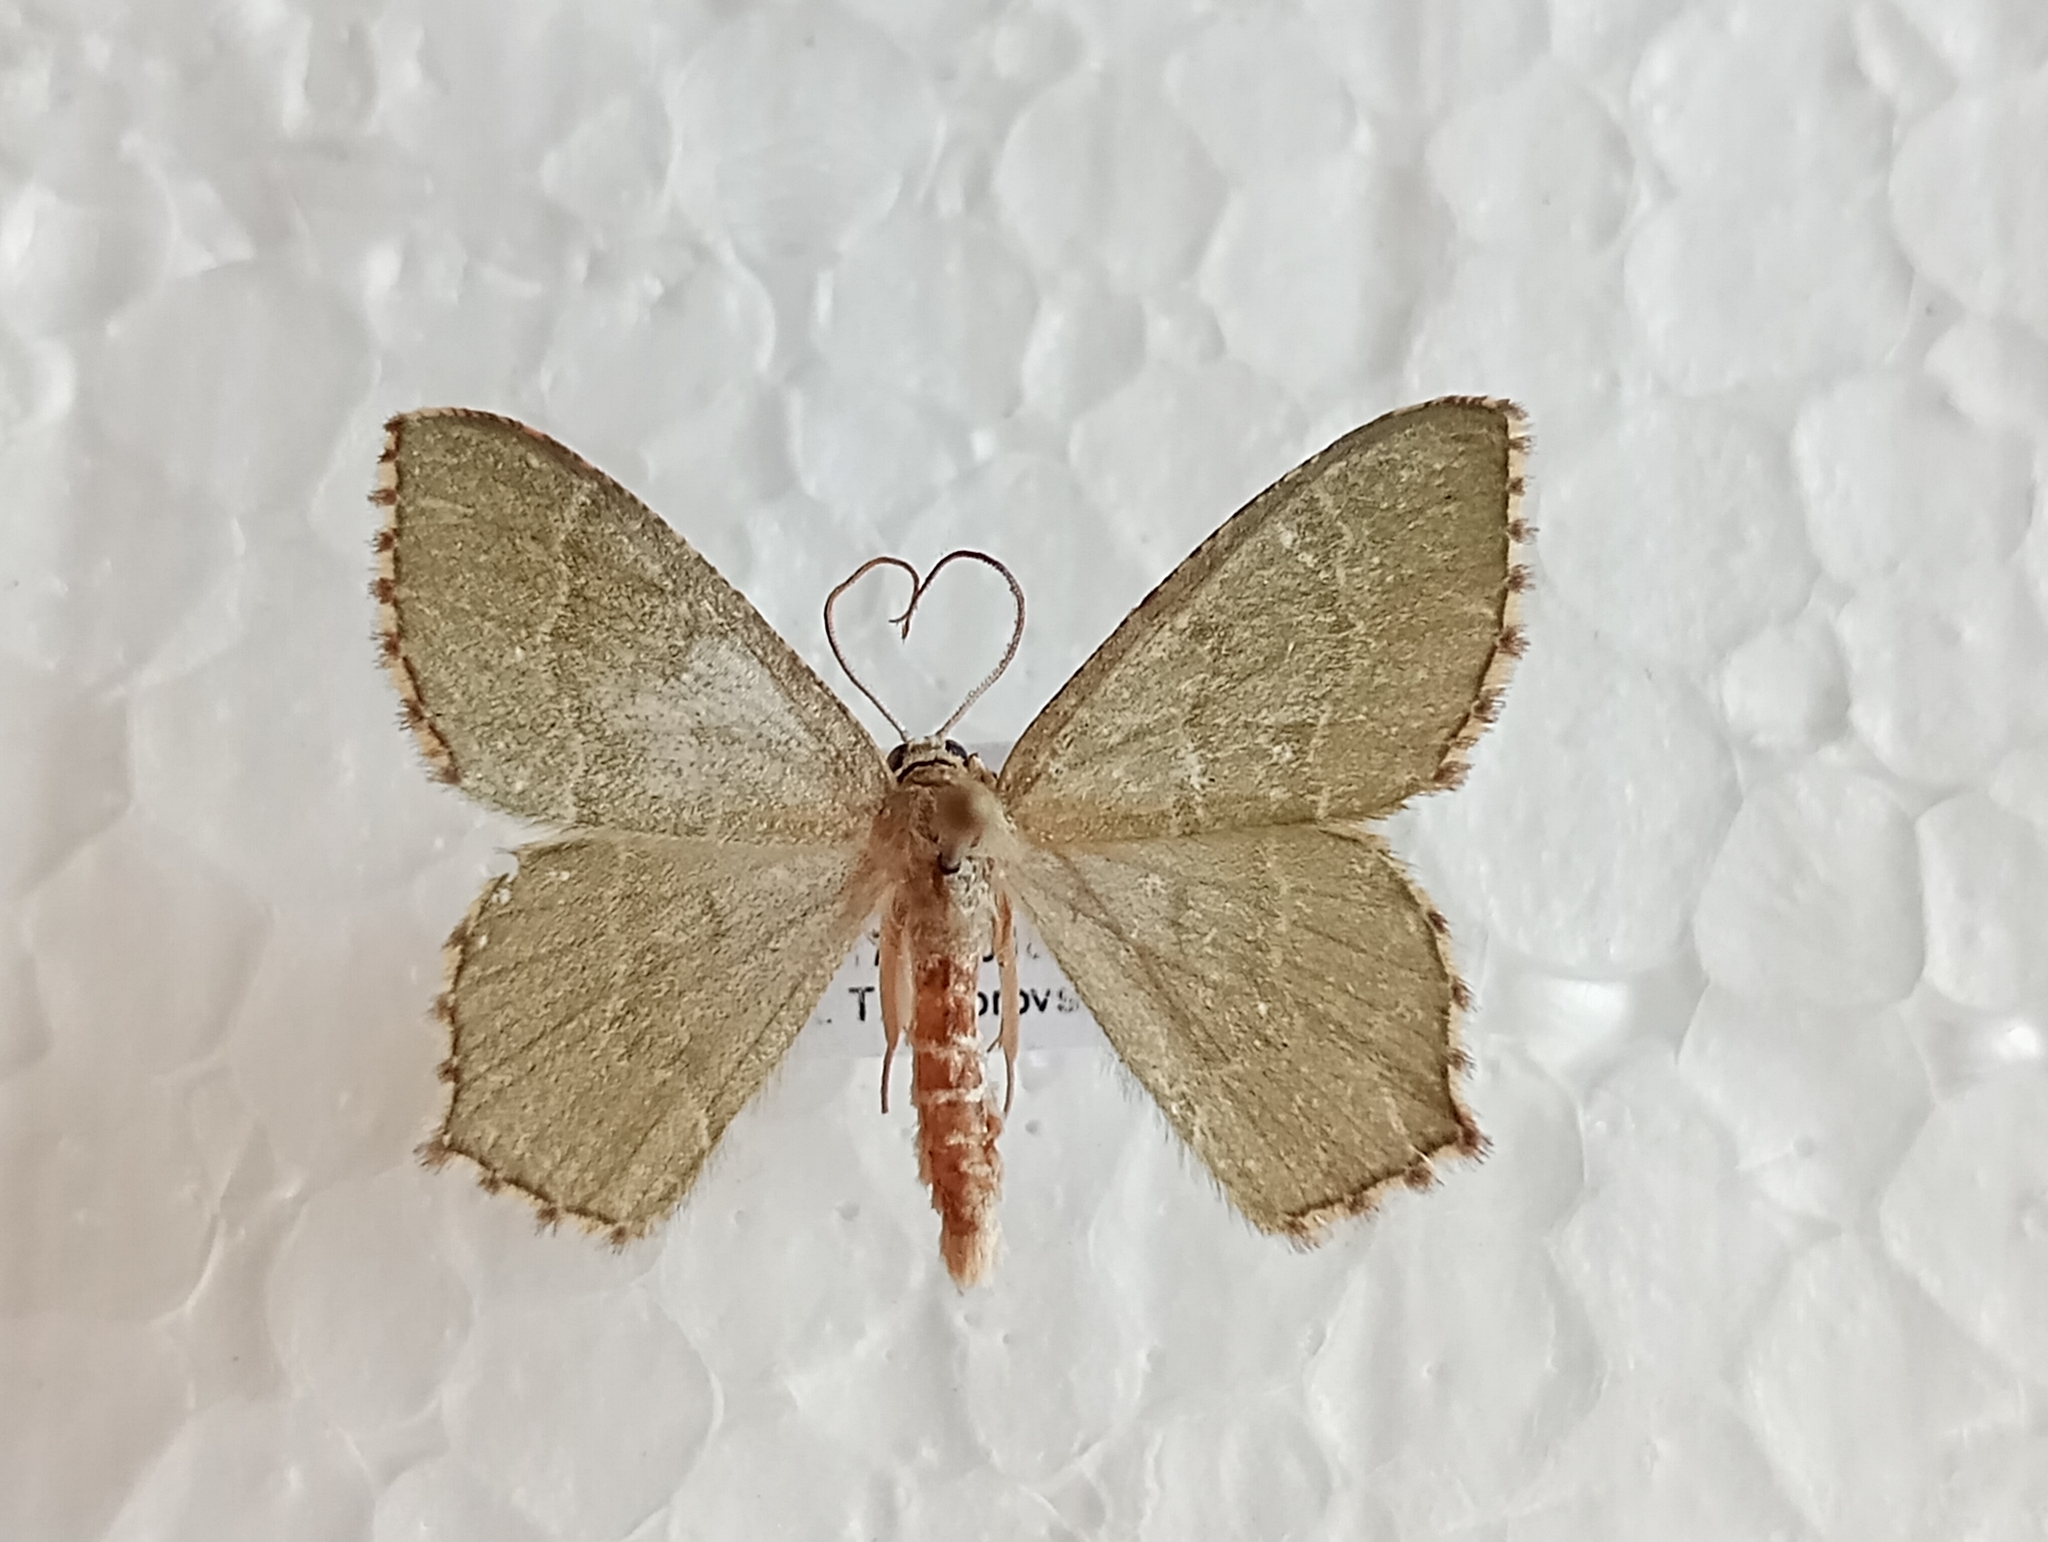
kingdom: Animalia
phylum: Arthropoda
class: Insecta
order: Lepidoptera
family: Geometridae
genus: Hemithea
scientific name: Hemithea aestivaria
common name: Common emerald
